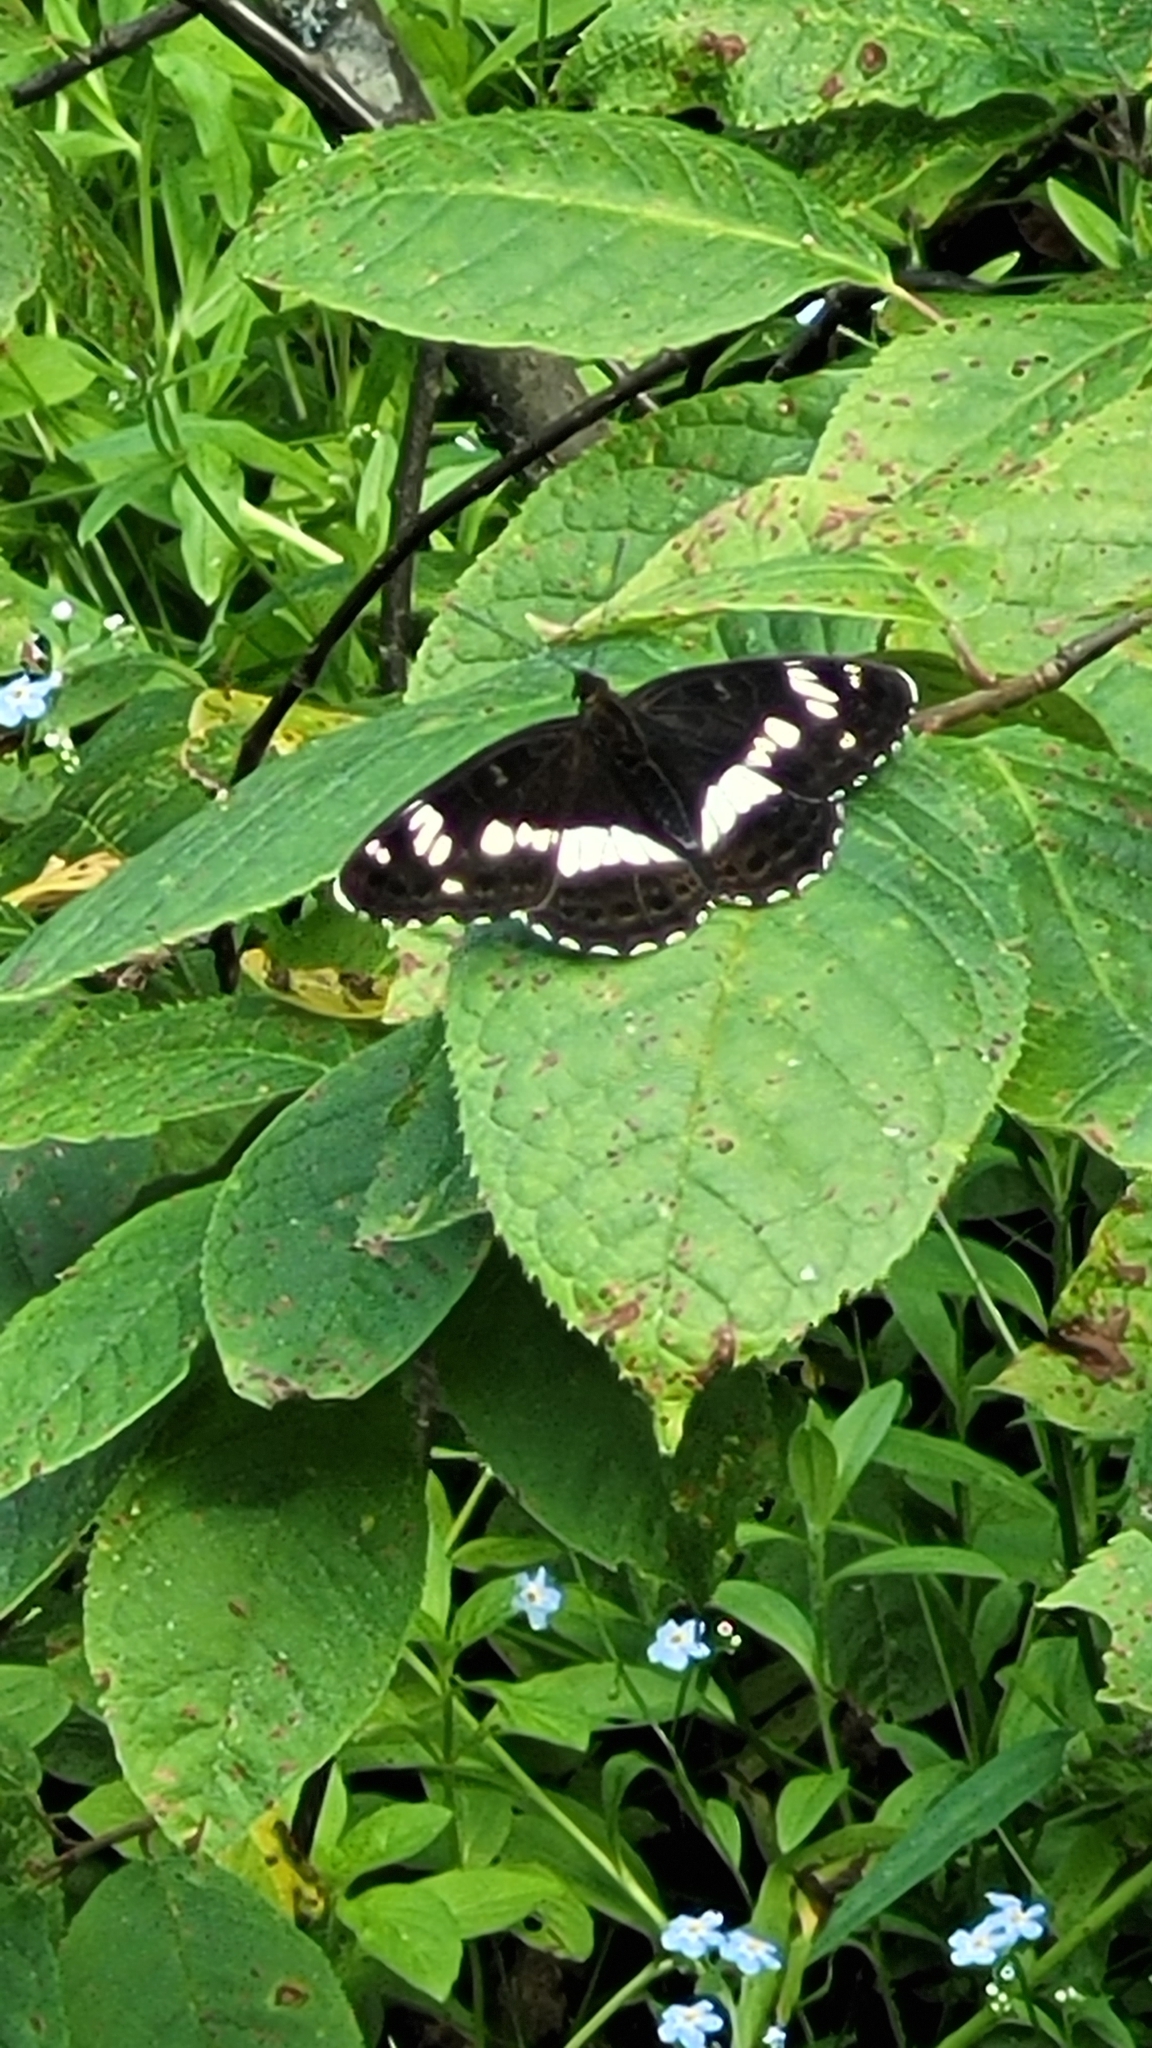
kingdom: Animalia
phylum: Arthropoda
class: Insecta
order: Lepidoptera
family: Nymphalidae
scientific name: Nymphalidae
